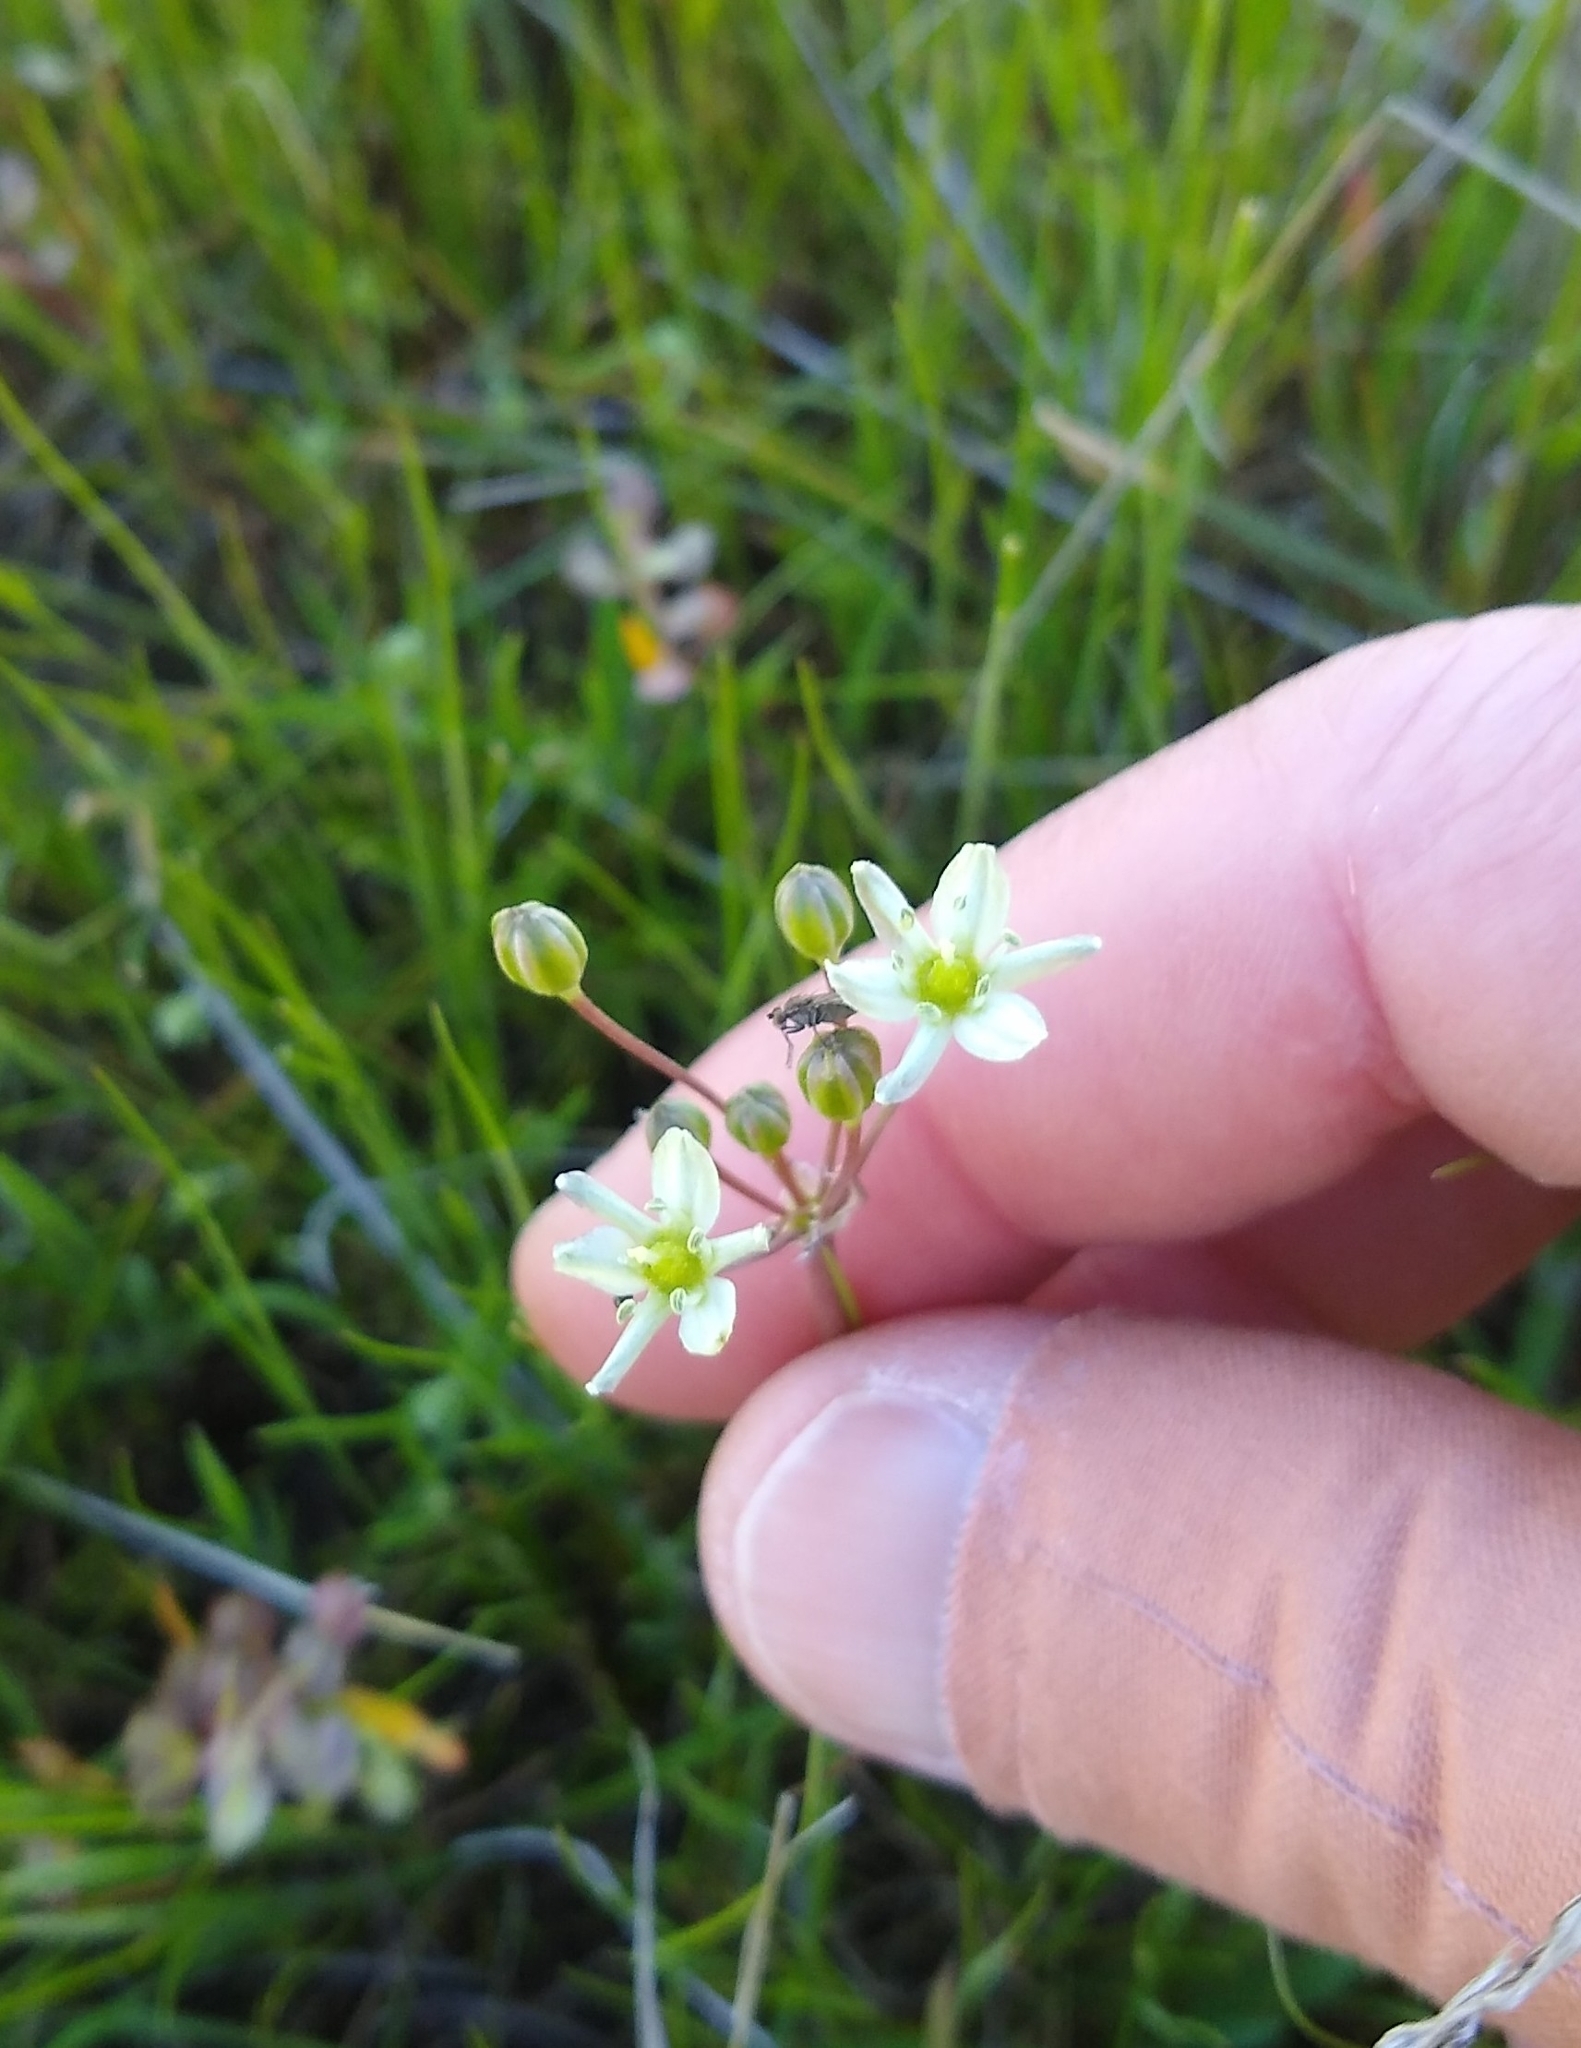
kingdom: Plantae
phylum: Tracheophyta
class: Liliopsida
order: Asparagales
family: Asparagaceae
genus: Muilla
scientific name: Muilla maritima
